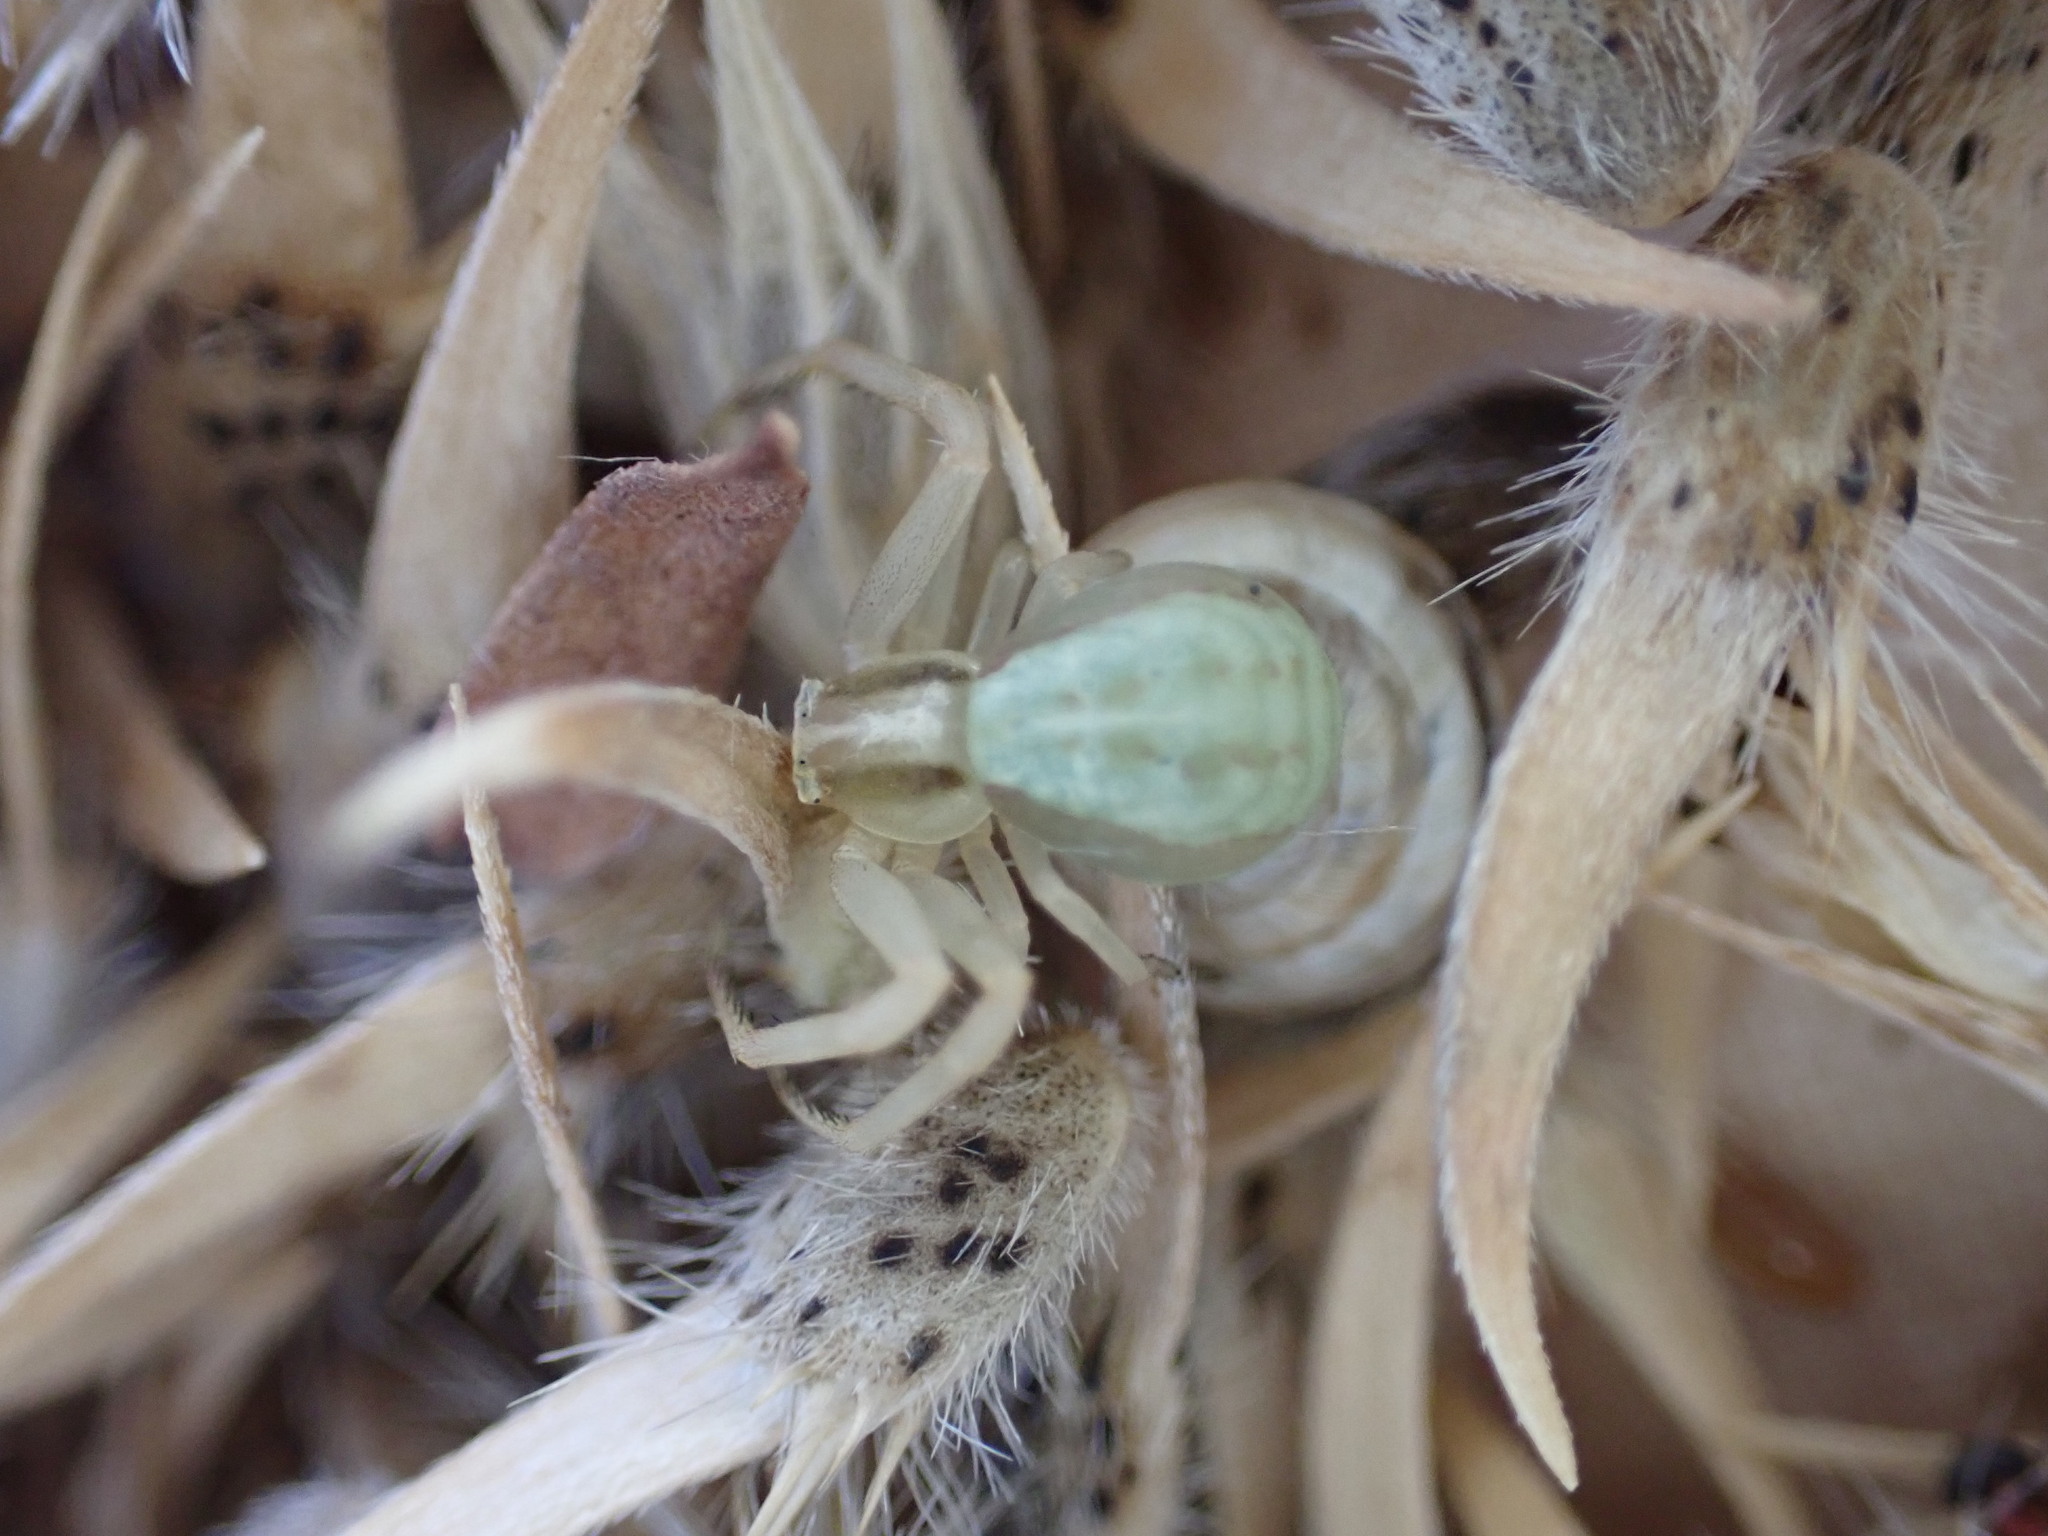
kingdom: Animalia
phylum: Arthropoda
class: Arachnida
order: Araneae
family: Thomisidae
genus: Runcinia
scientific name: Runcinia grammica
